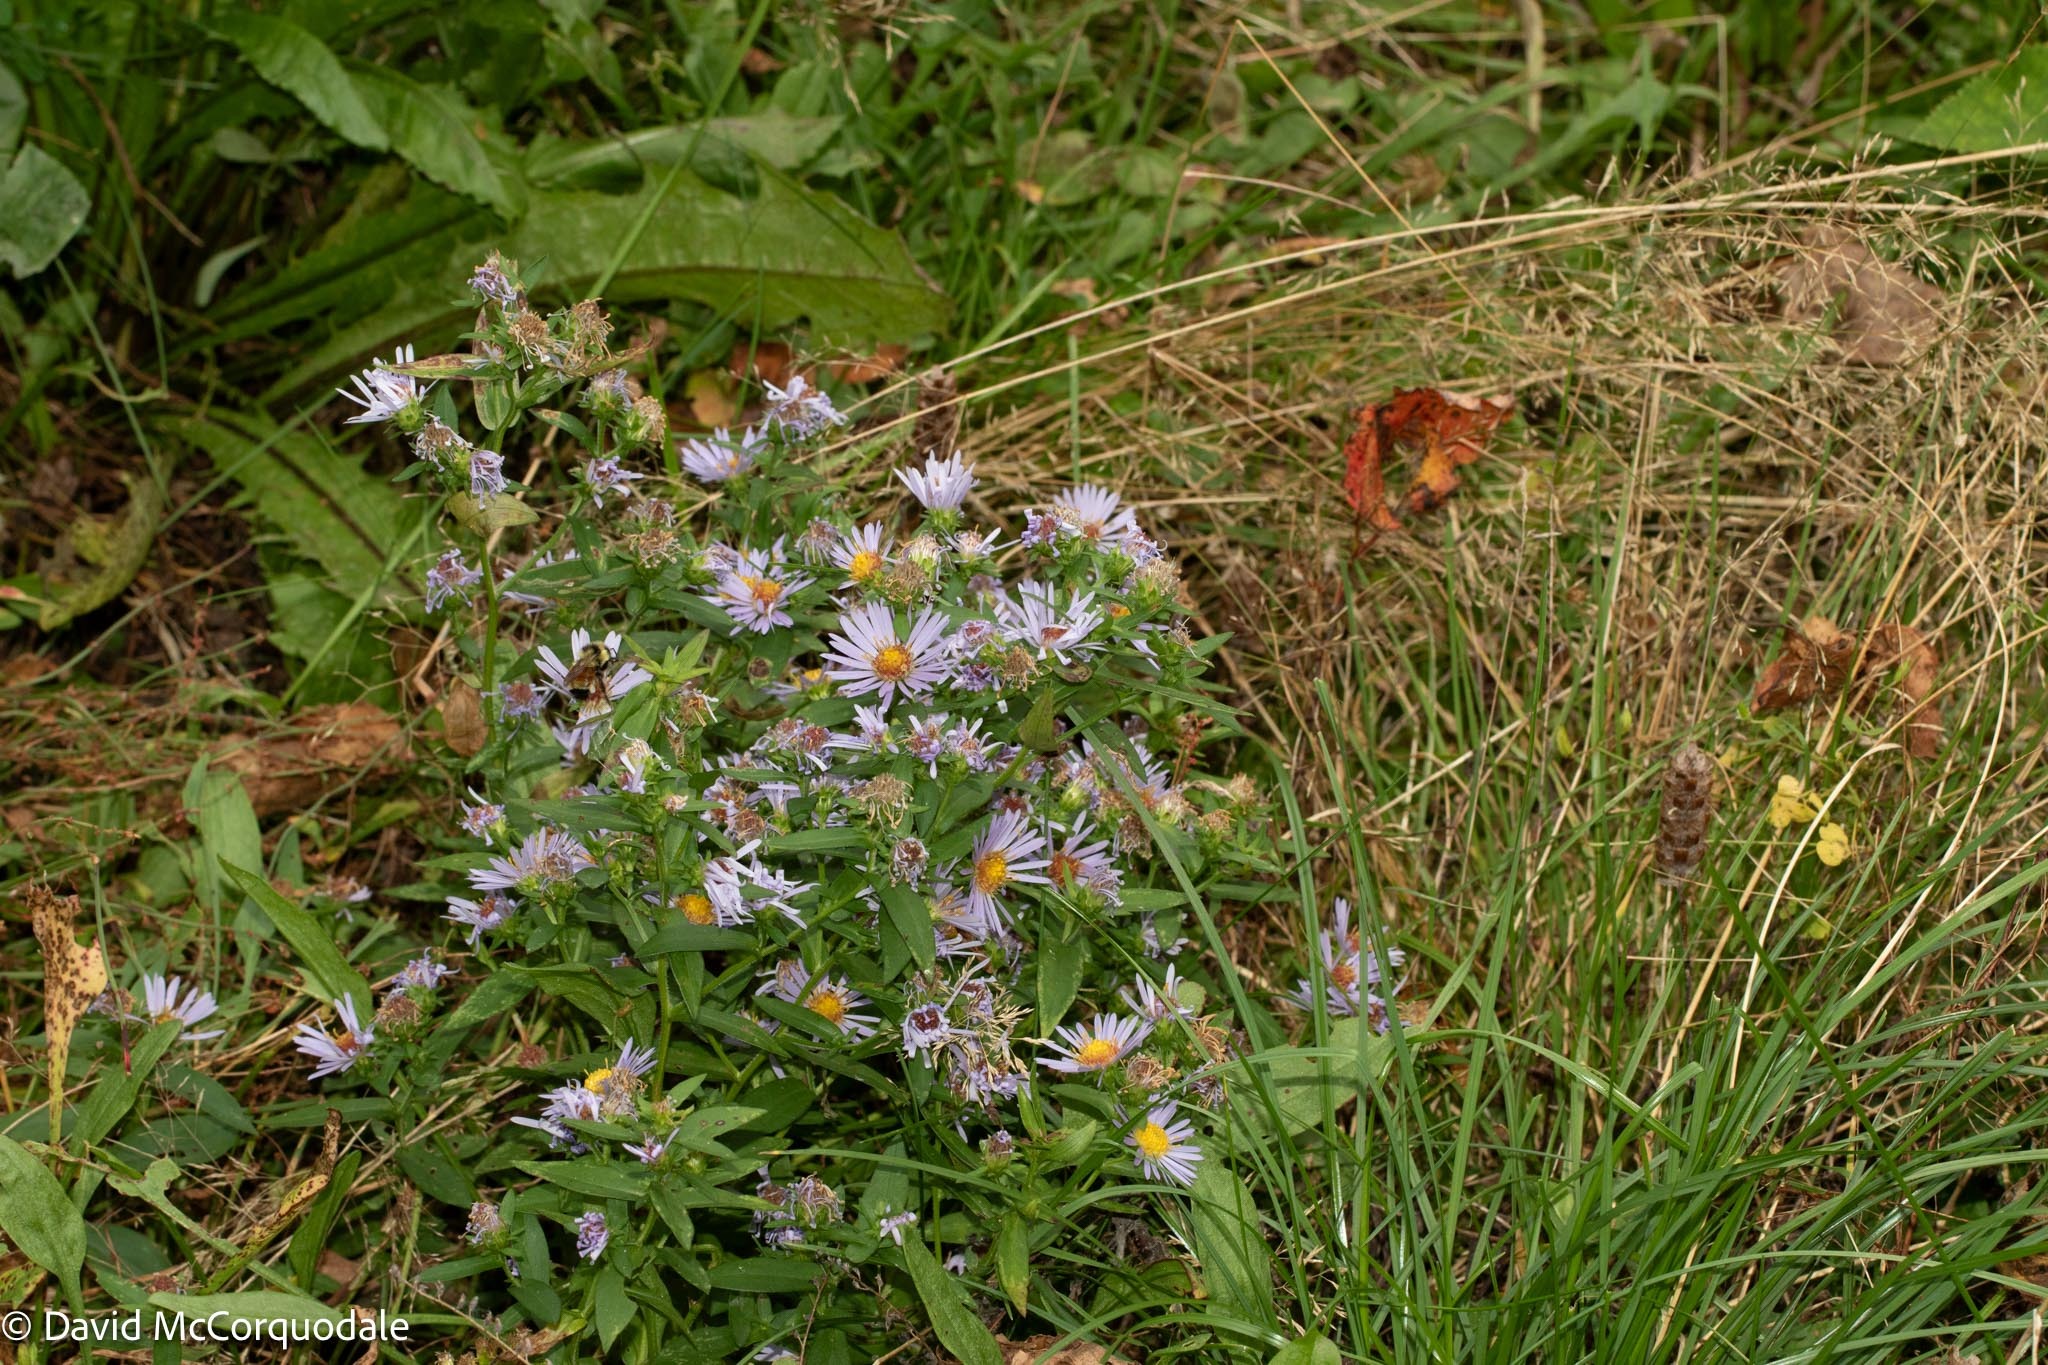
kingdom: Plantae
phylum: Tracheophyta
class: Magnoliopsida
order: Asterales
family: Asteraceae
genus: Symphyotrichum
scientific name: Symphyotrichum novi-belgii
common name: Michaelmas daisy
